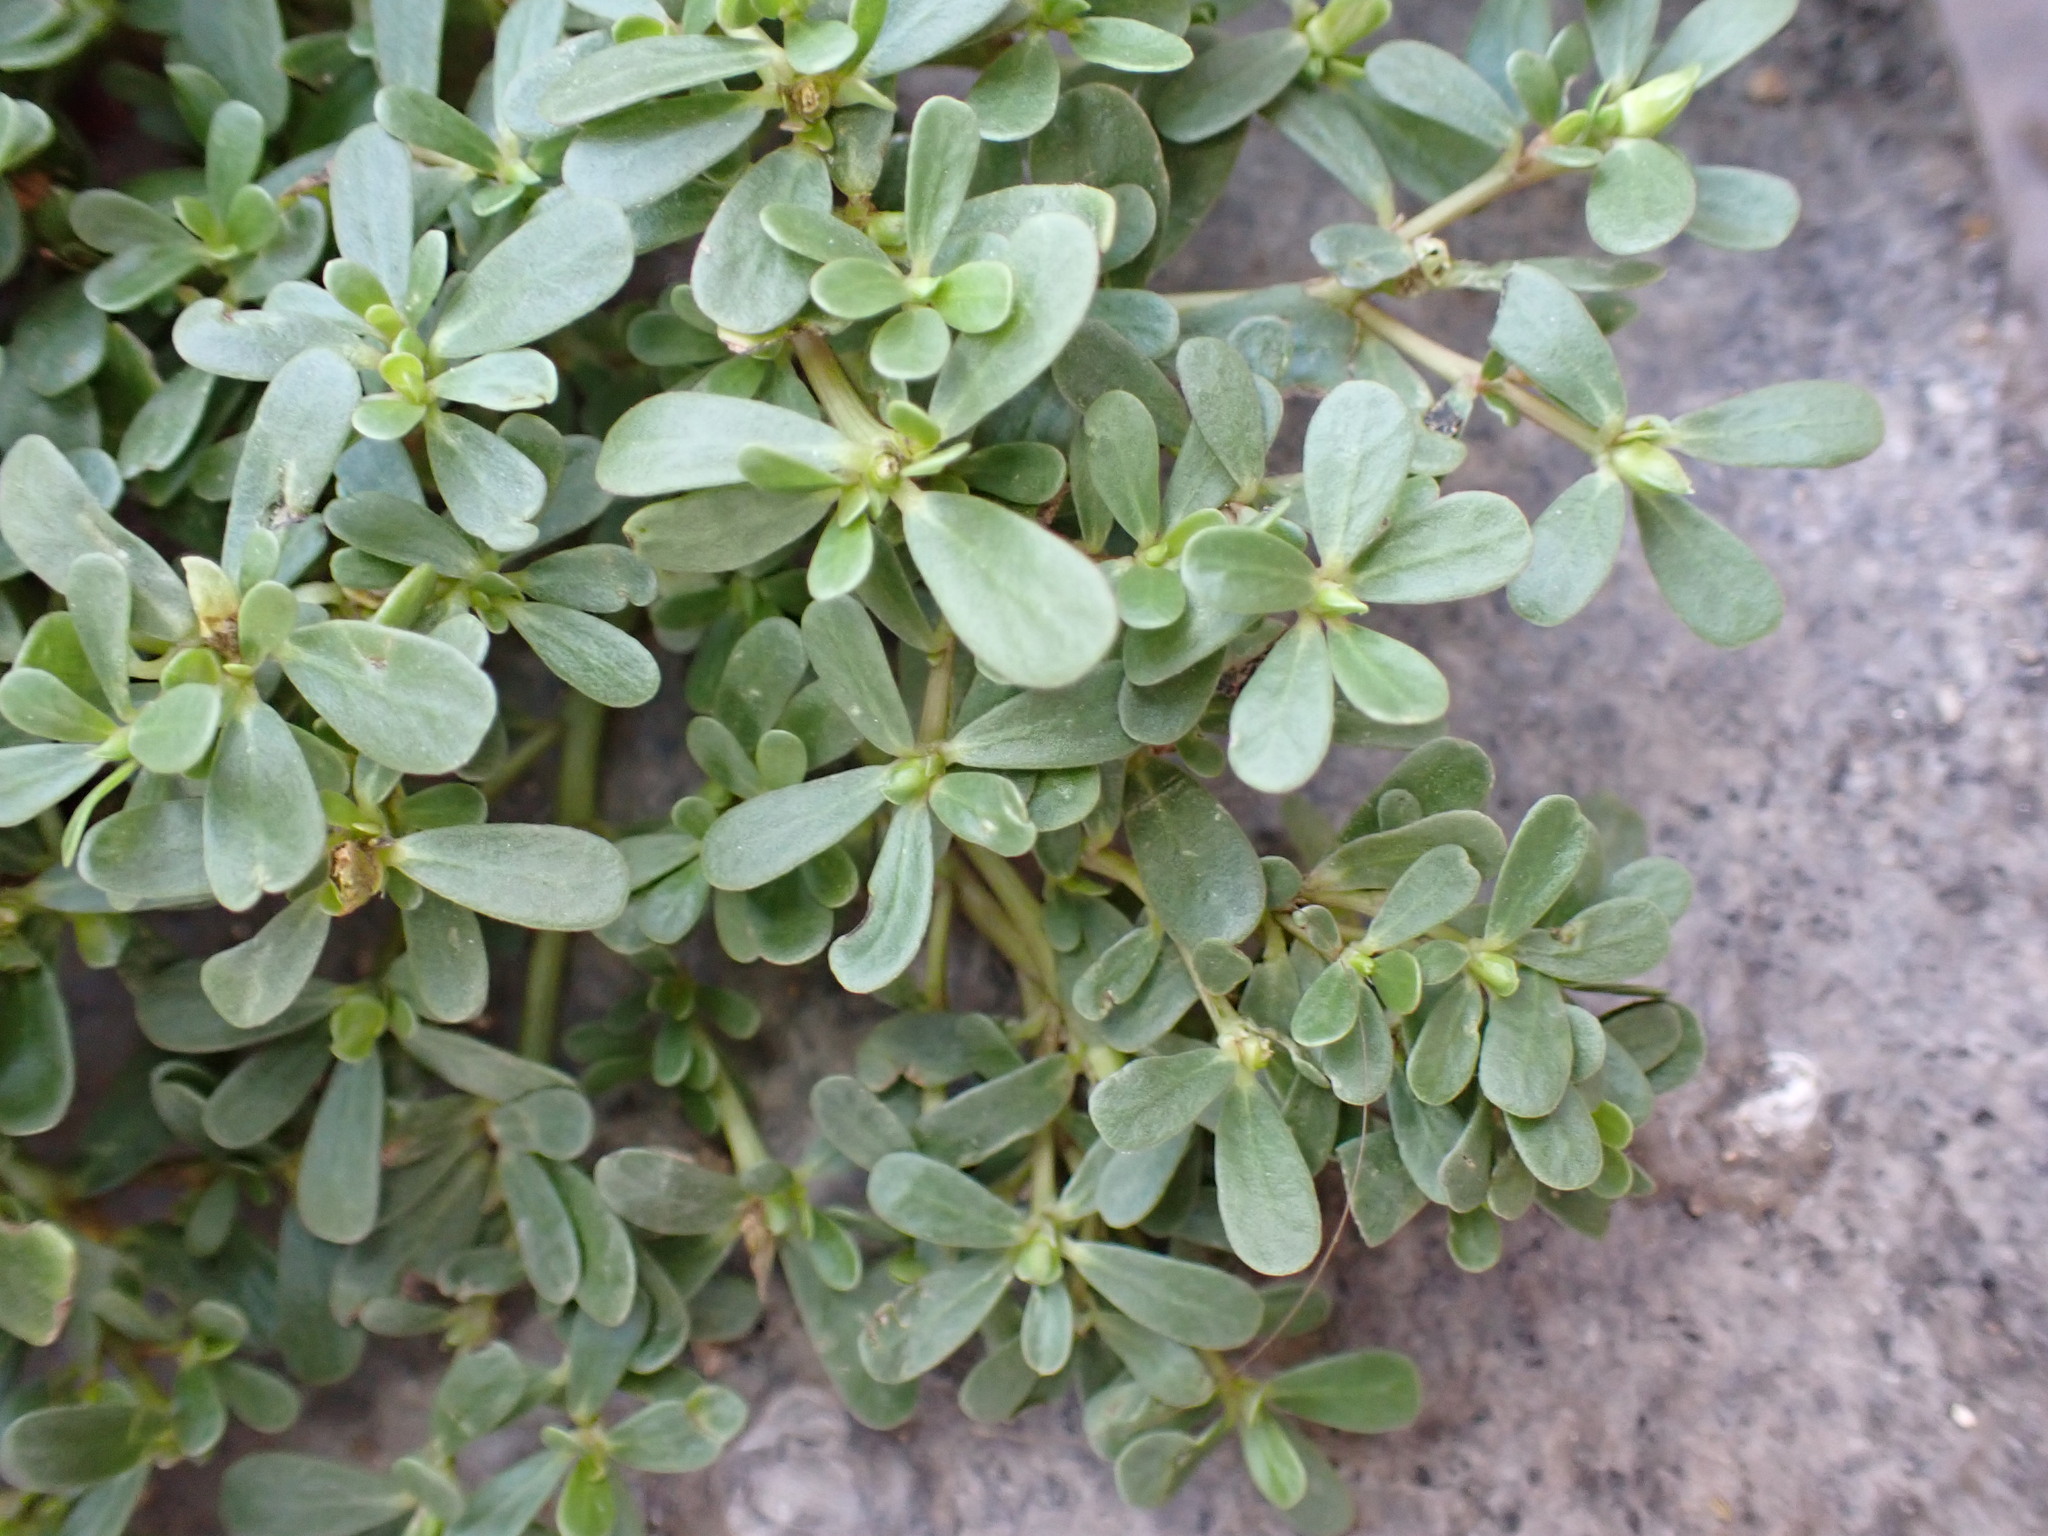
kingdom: Plantae
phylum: Tracheophyta
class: Magnoliopsida
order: Caryophyllales
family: Portulacaceae
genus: Portulaca
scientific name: Portulaca oleracea
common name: Common purslane
